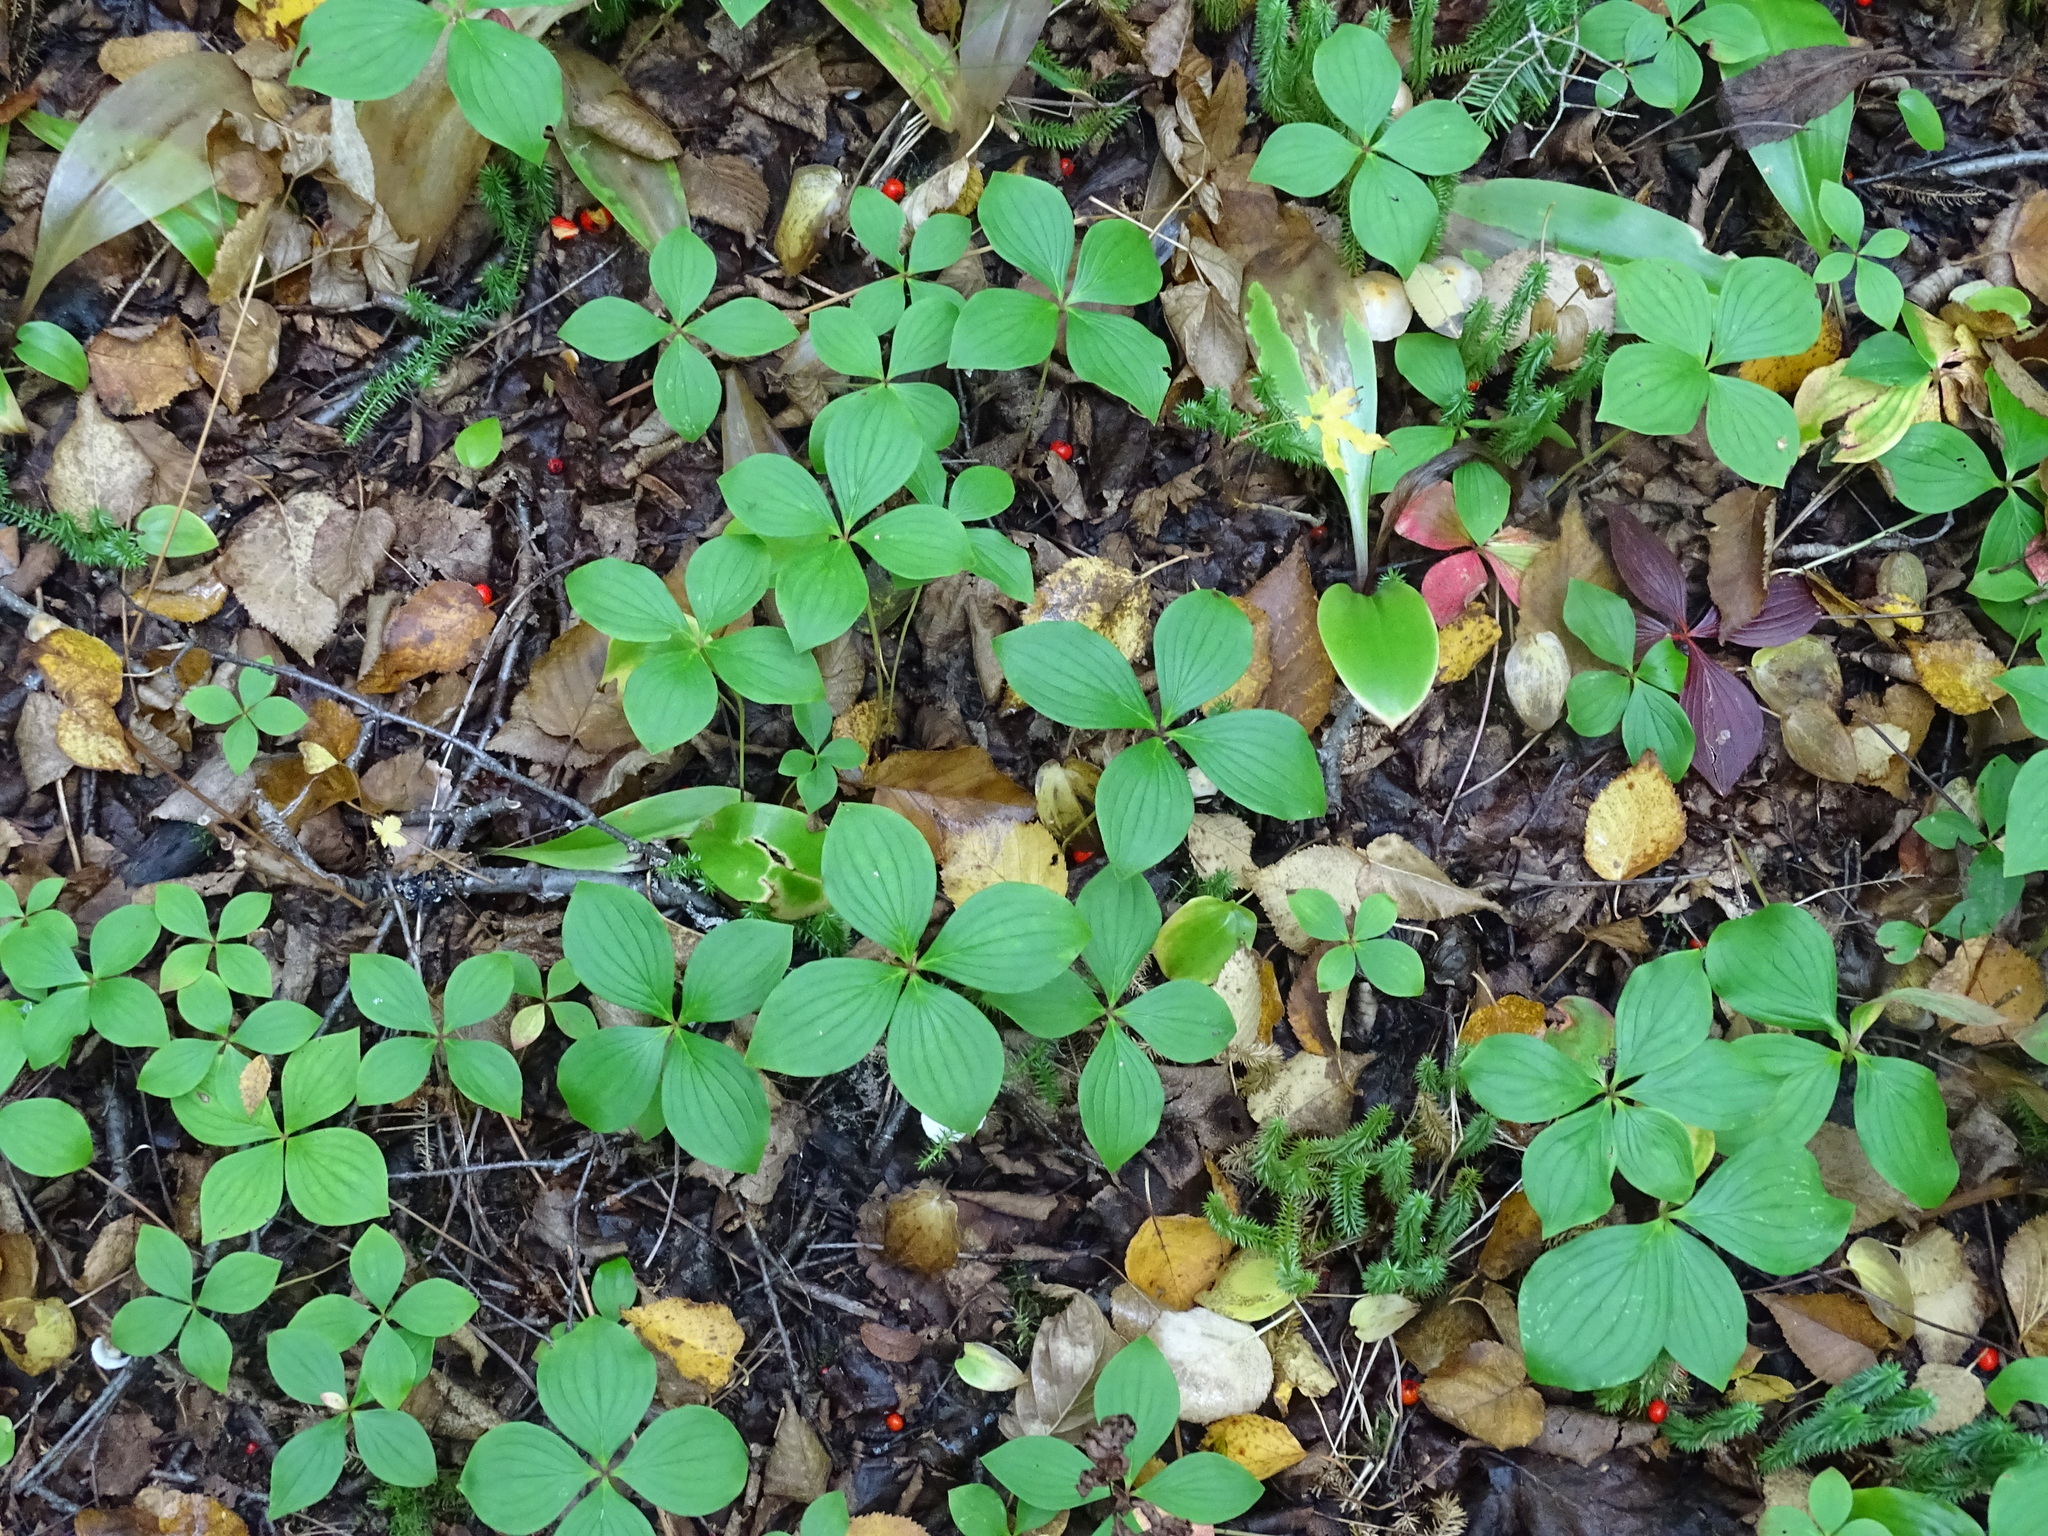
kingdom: Plantae
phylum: Tracheophyta
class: Magnoliopsida
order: Cornales
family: Cornaceae
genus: Cornus
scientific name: Cornus canadensis
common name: Creeping dogwood
